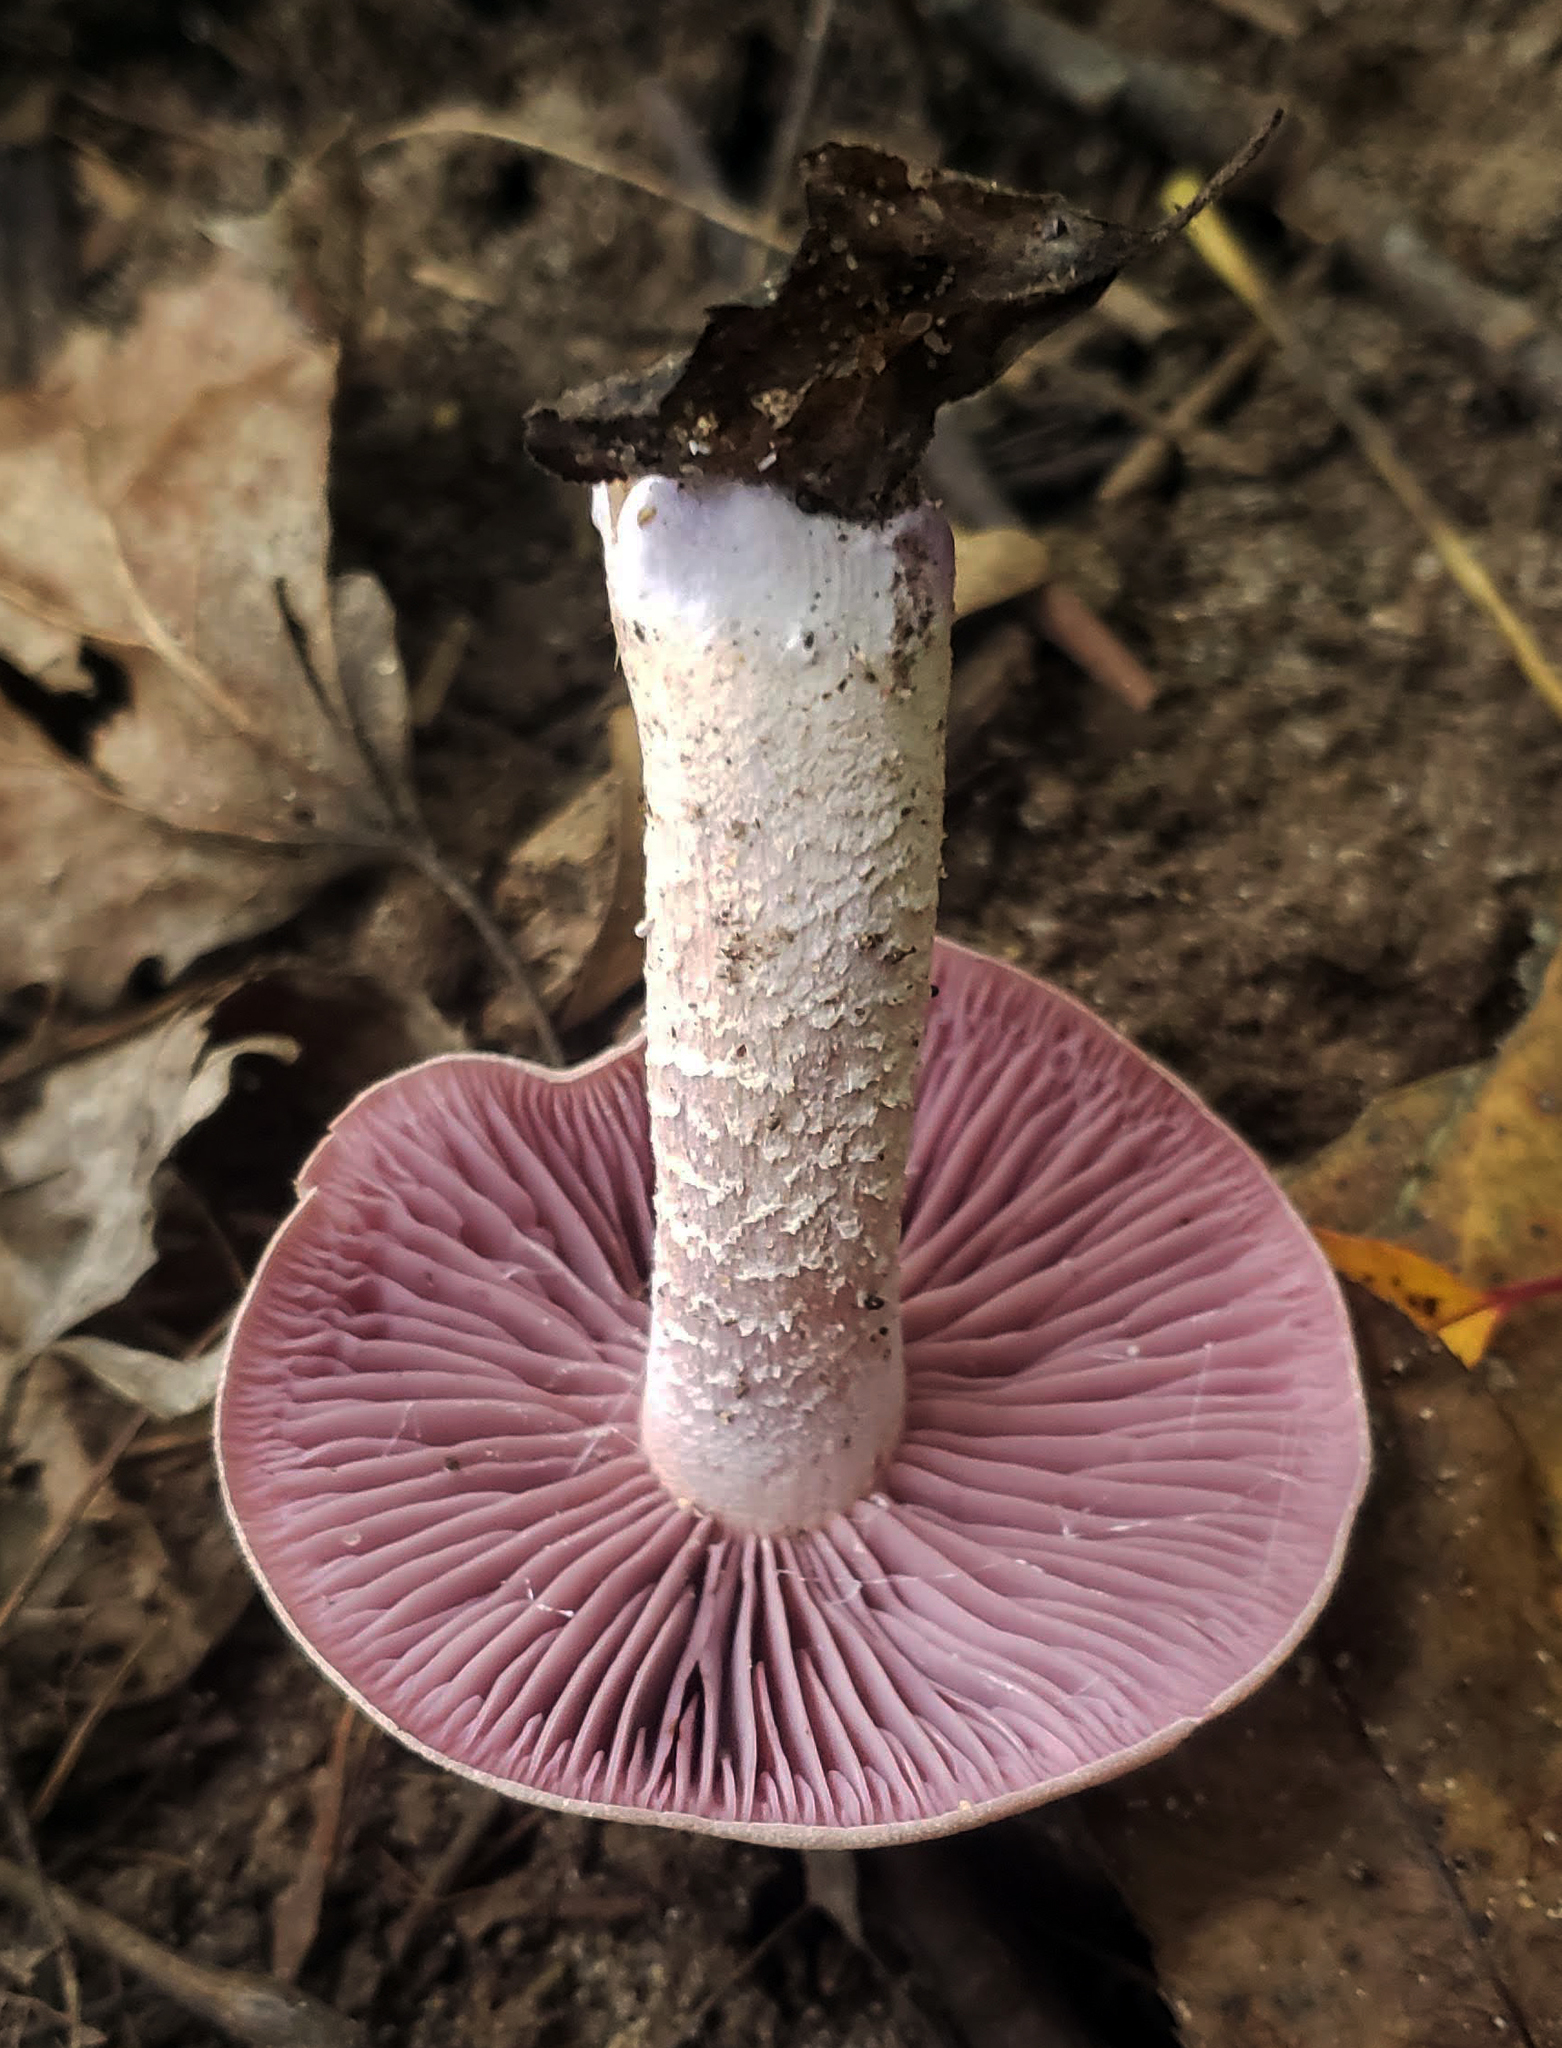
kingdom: Fungi
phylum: Basidiomycota
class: Agaricomycetes
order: Agaricales
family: Hydnangiaceae
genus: Laccaria
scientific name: Laccaria ochropurpurea
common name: Purple laccaria
